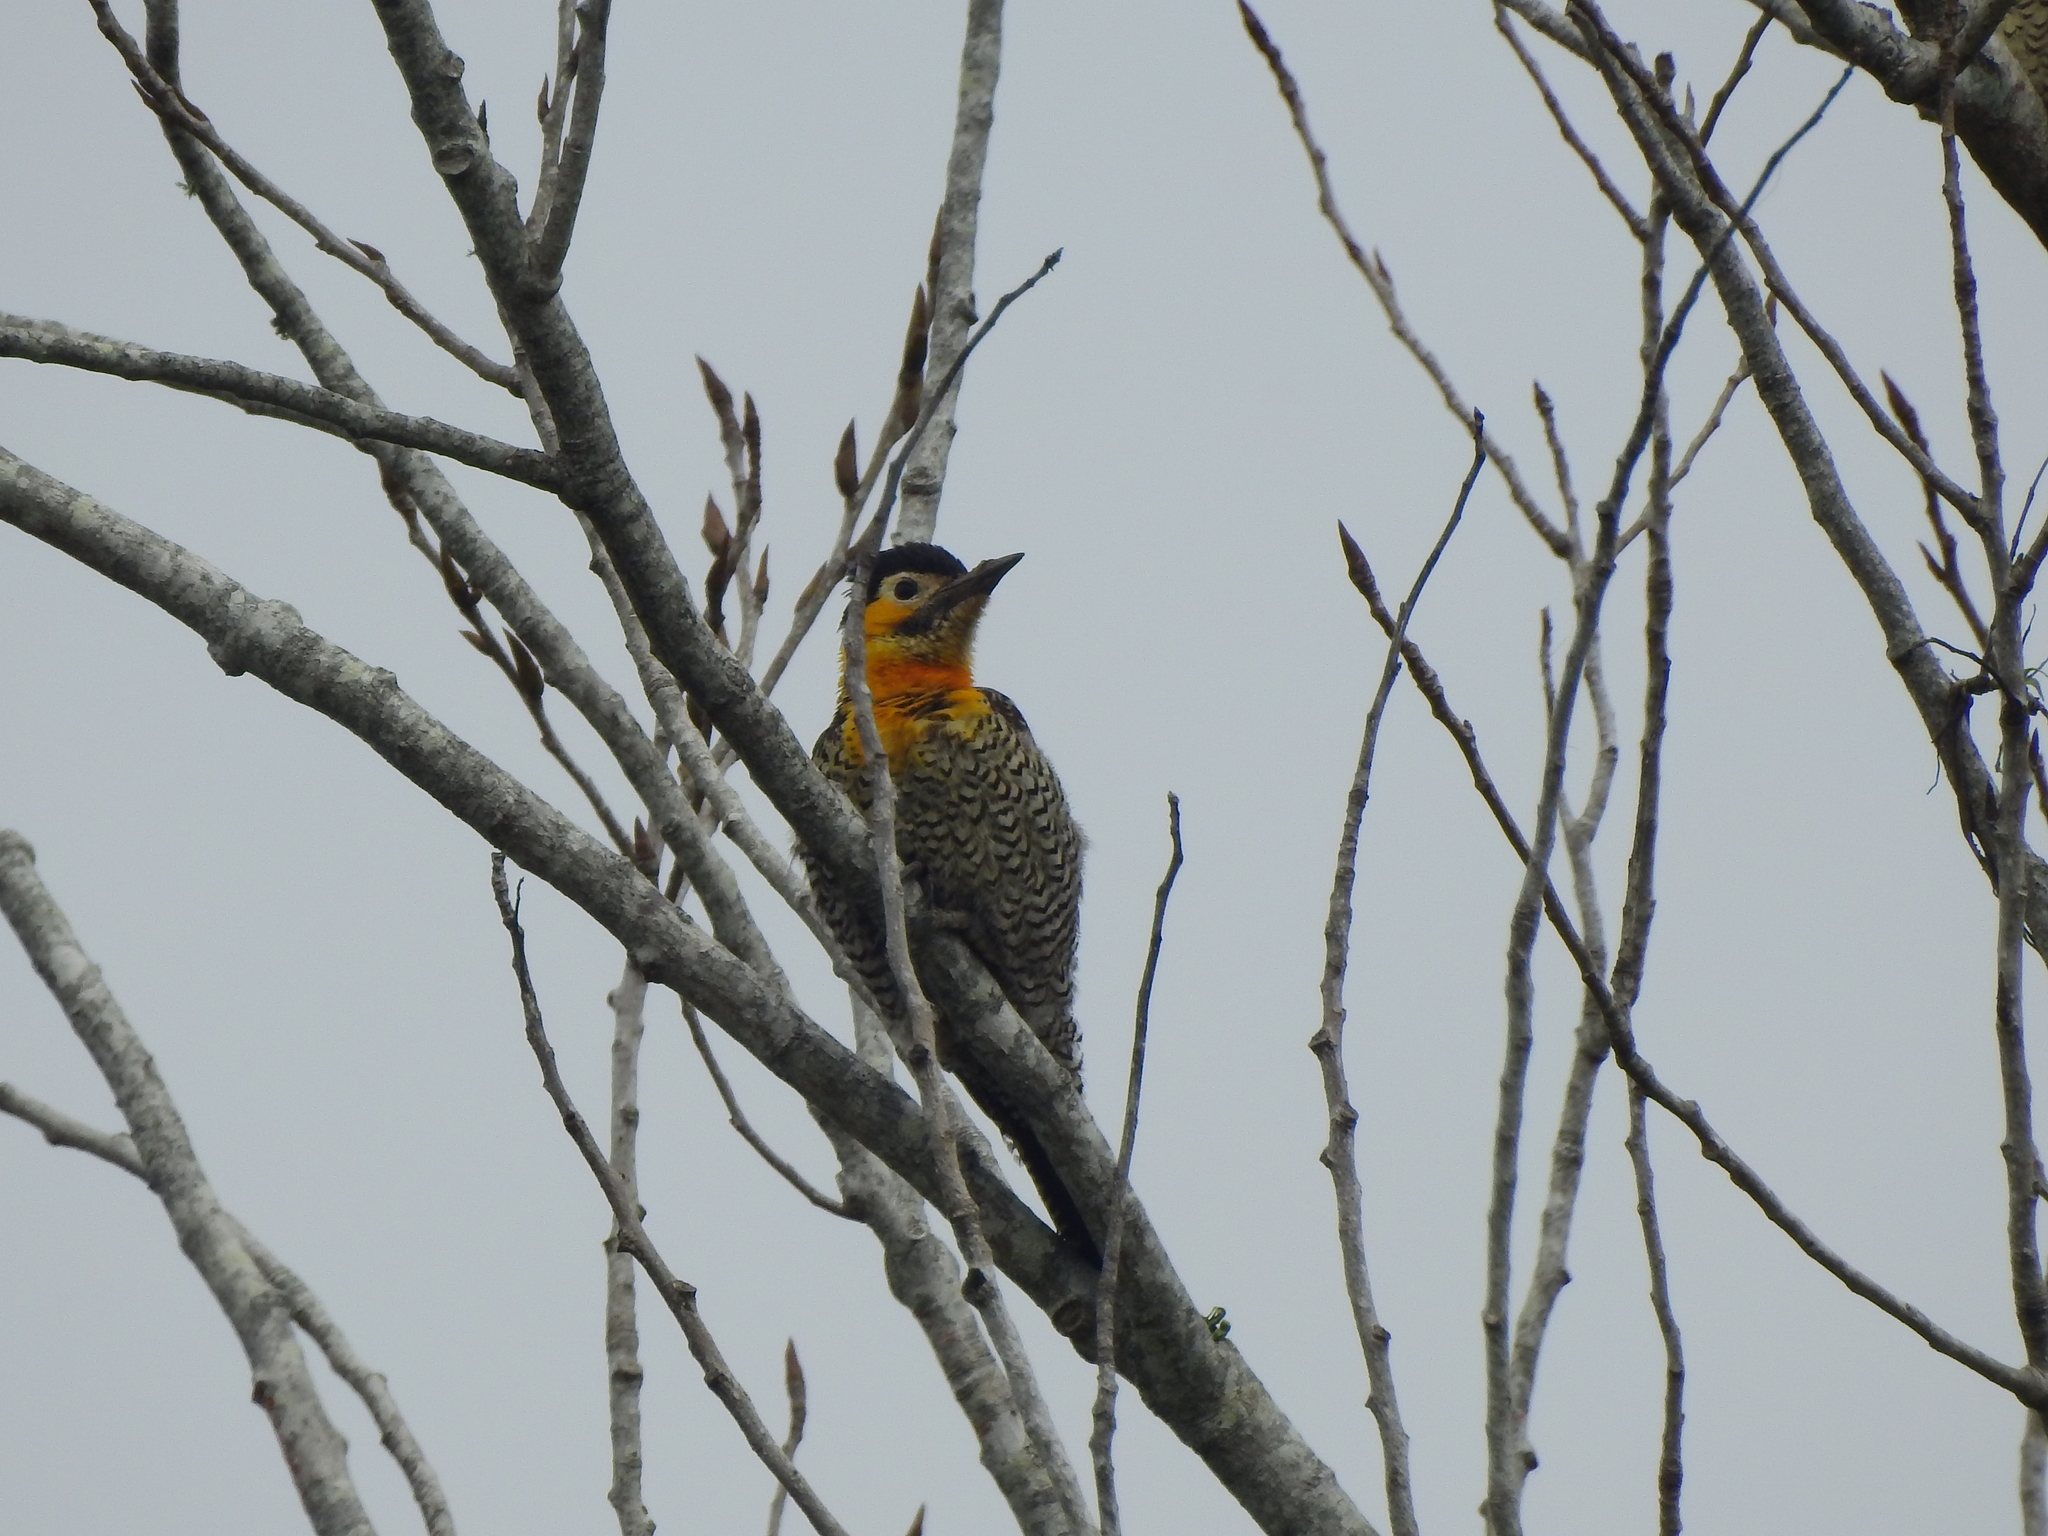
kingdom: Animalia
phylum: Chordata
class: Aves
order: Piciformes
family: Picidae
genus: Colaptes
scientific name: Colaptes campestris
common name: Campo flicker
